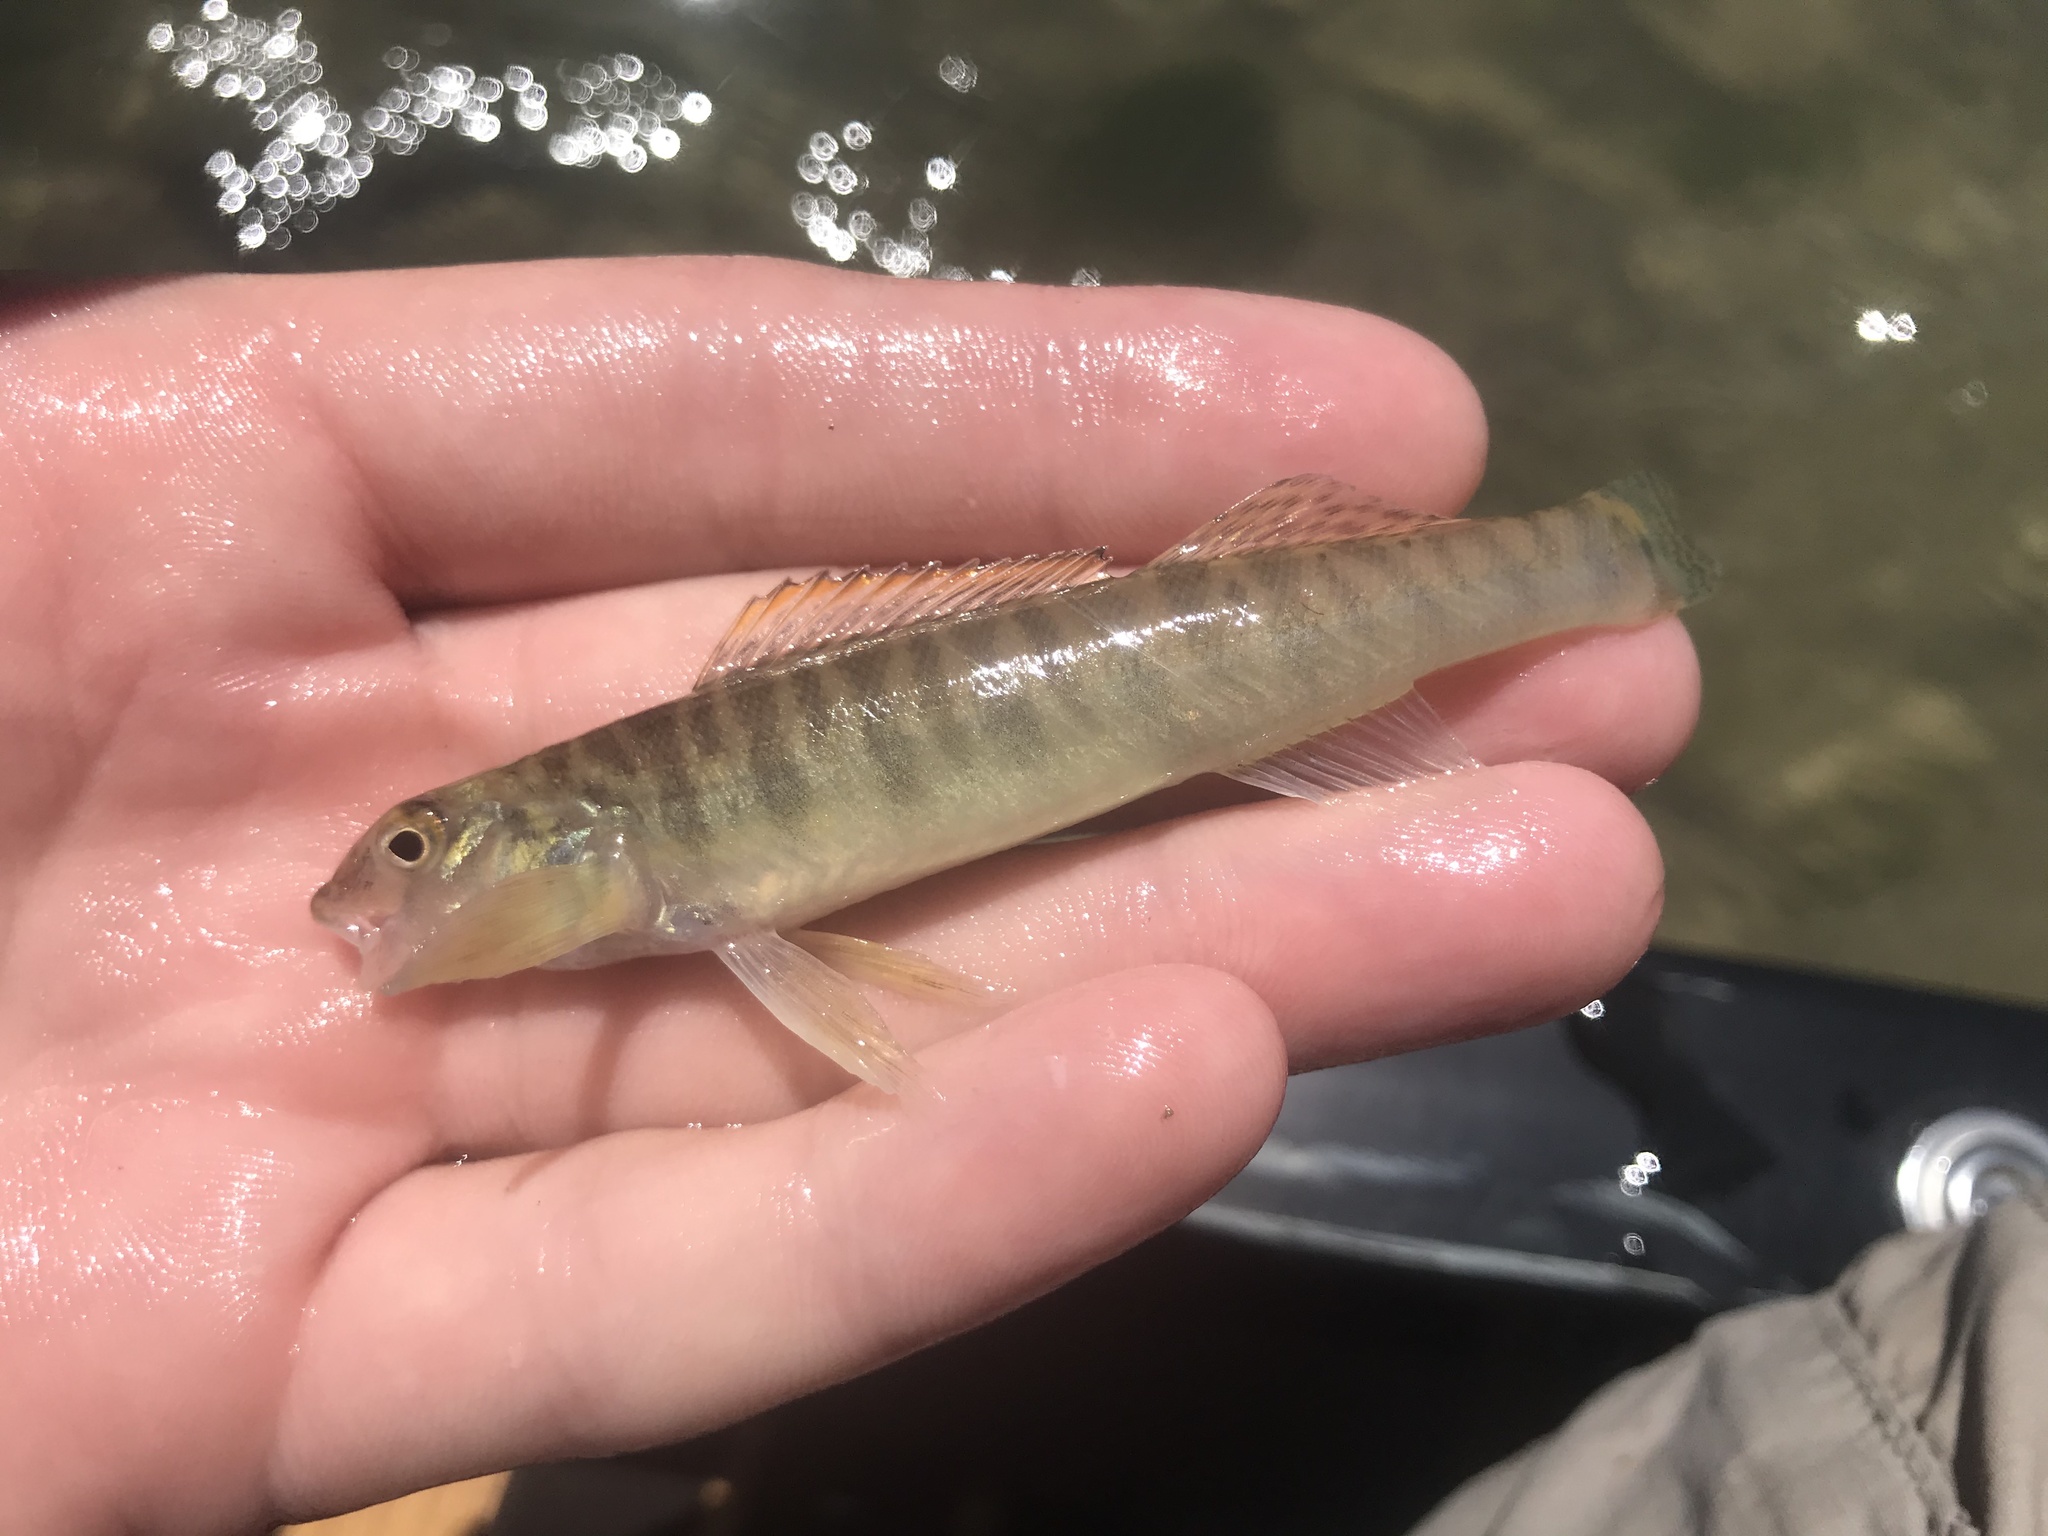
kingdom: Animalia
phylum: Chordata
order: Perciformes
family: Percidae
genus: Percina
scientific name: Percina carbonaria
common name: Texas logperch
